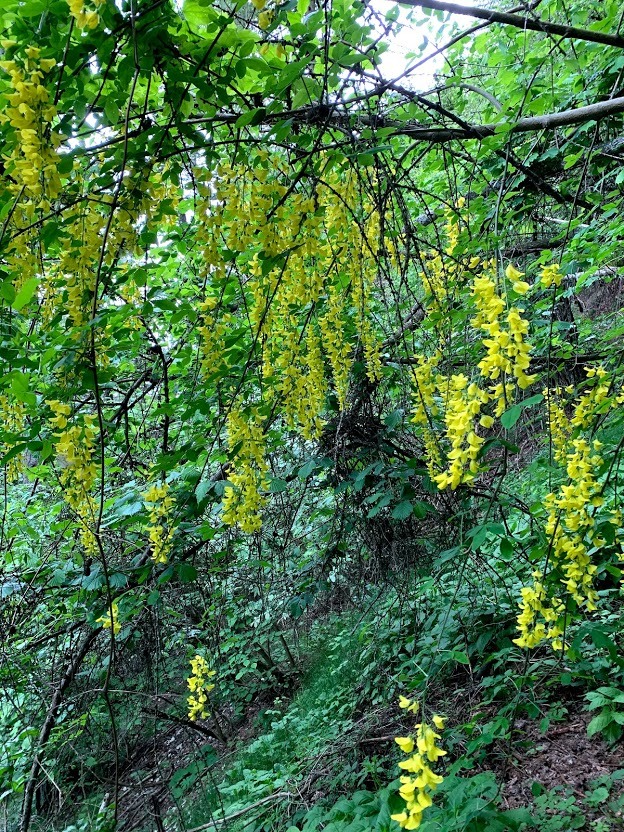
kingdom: Plantae
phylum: Tracheophyta
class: Magnoliopsida
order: Fabales
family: Fabaceae
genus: Laburnum
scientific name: Laburnum anagyroides
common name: Laburnum
